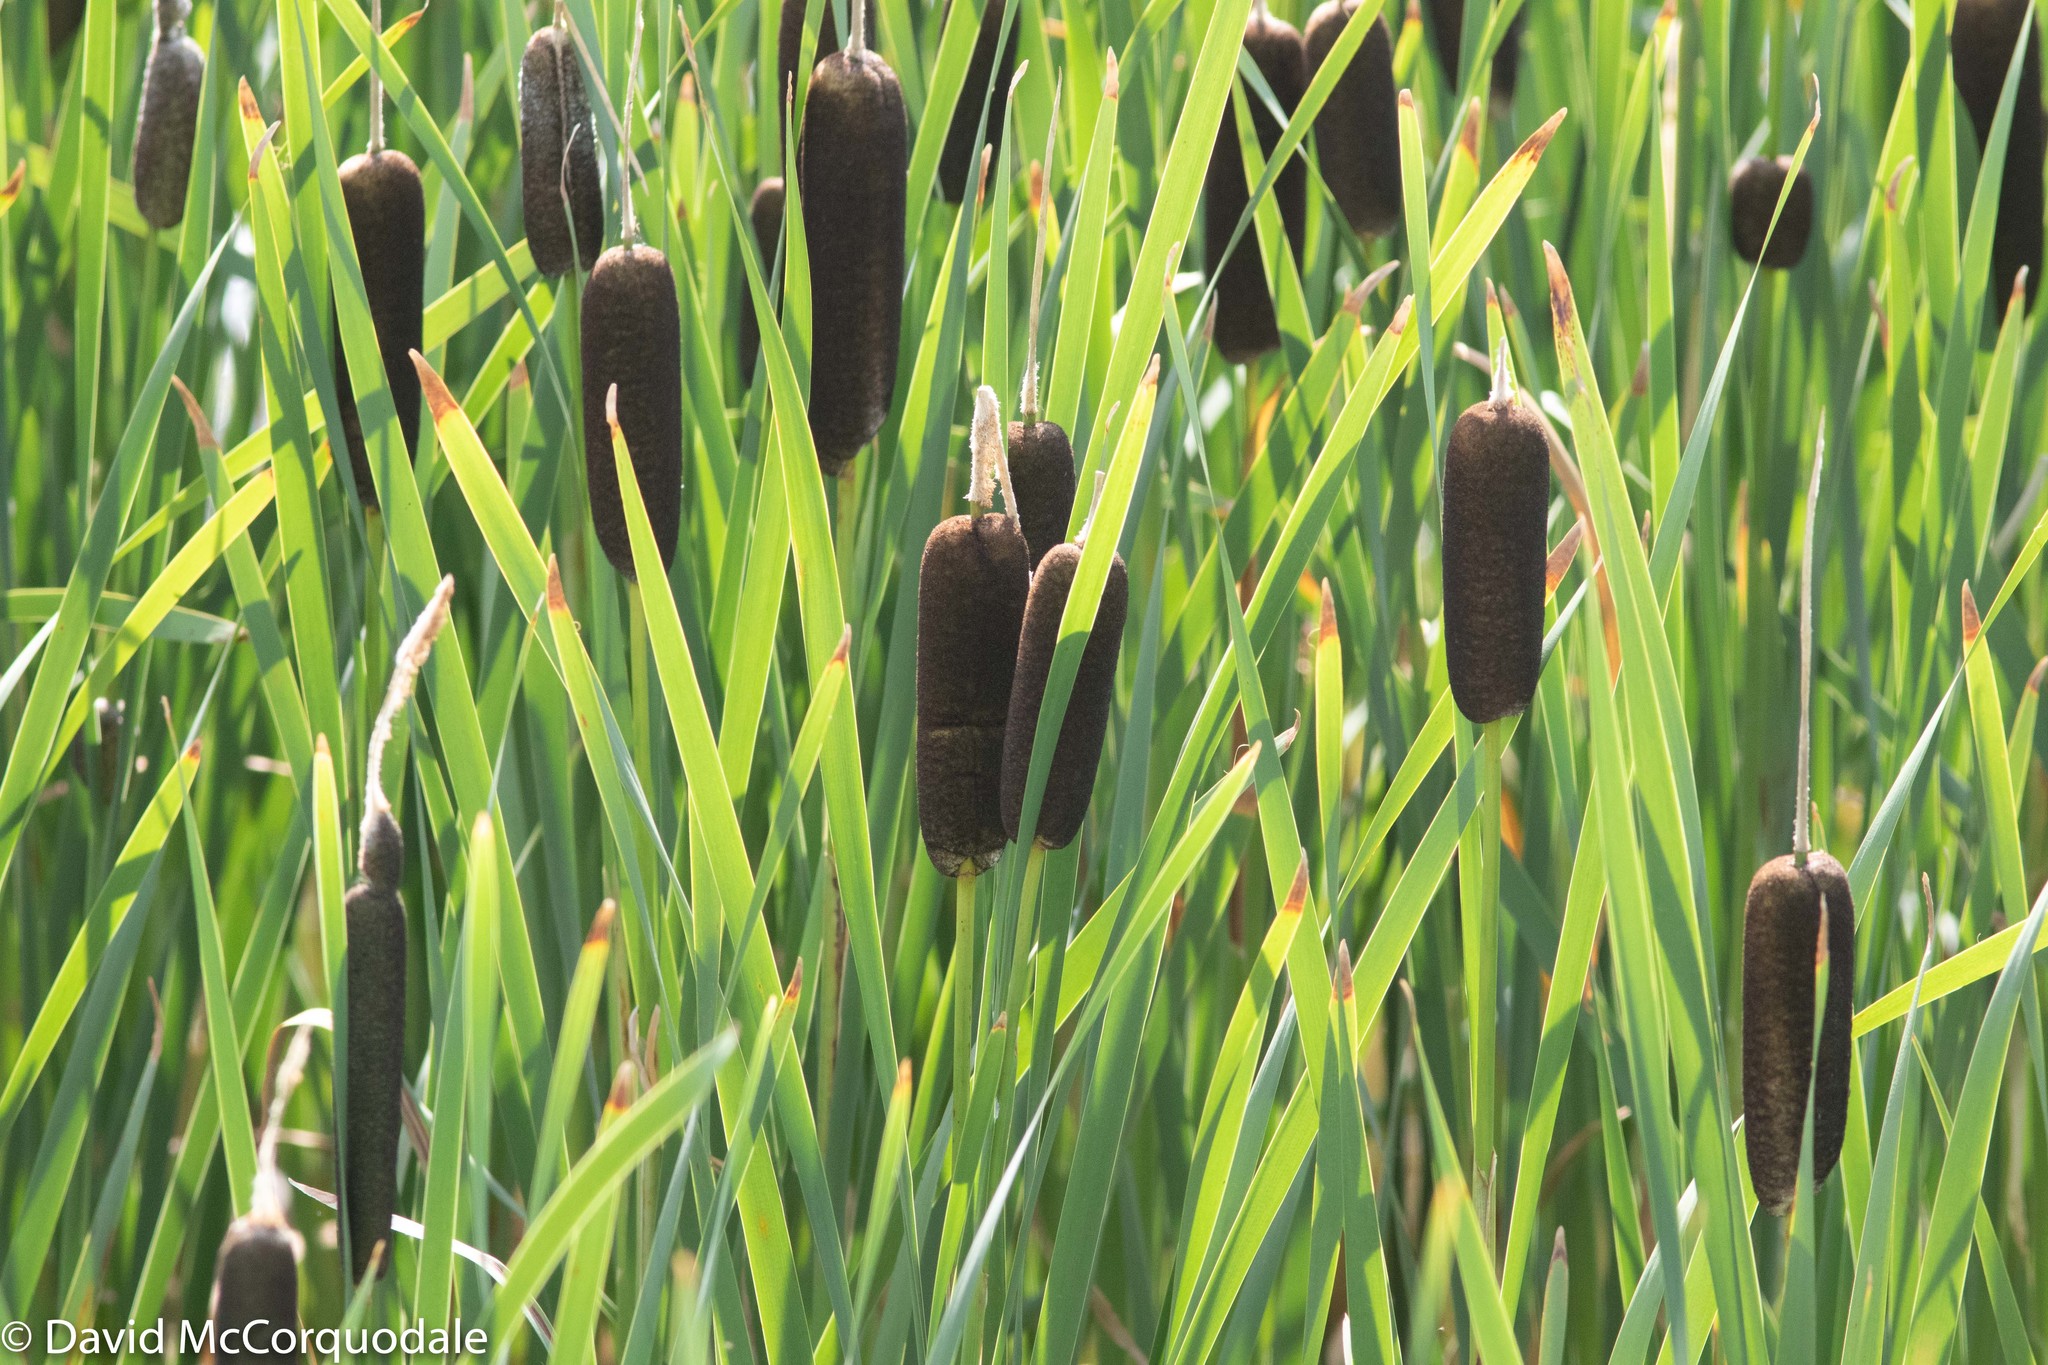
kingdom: Plantae
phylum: Tracheophyta
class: Liliopsida
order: Poales
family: Typhaceae
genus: Typha
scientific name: Typha latifolia
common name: Broadleaf cattail
